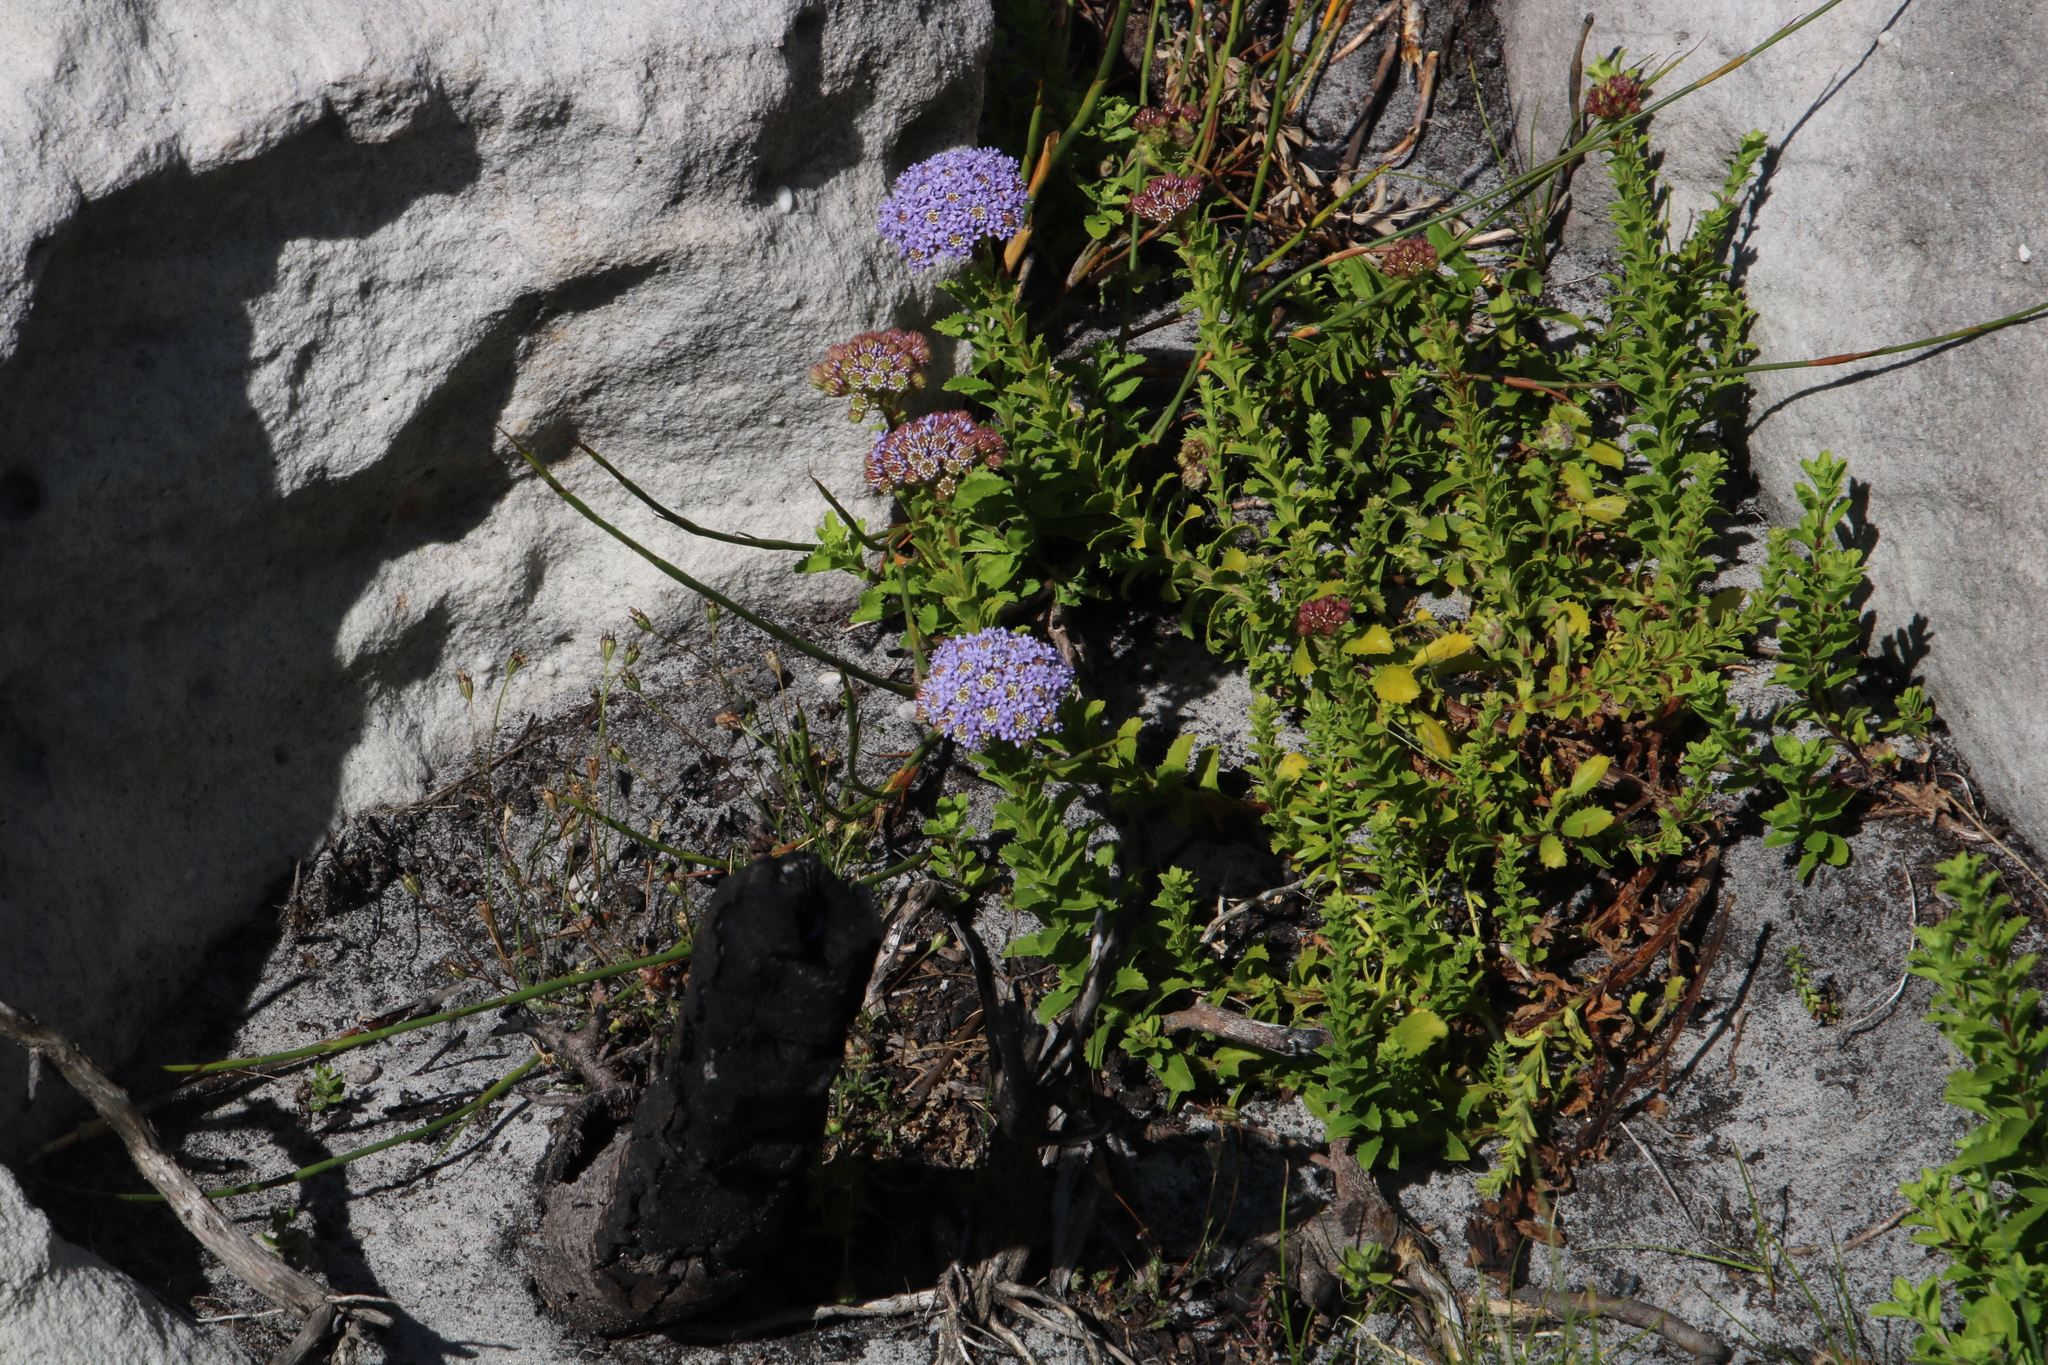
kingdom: Plantae
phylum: Tracheophyta
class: Magnoliopsida
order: Lamiales
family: Scrophulariaceae
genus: Pseudoselago
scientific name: Pseudoselago serrata
